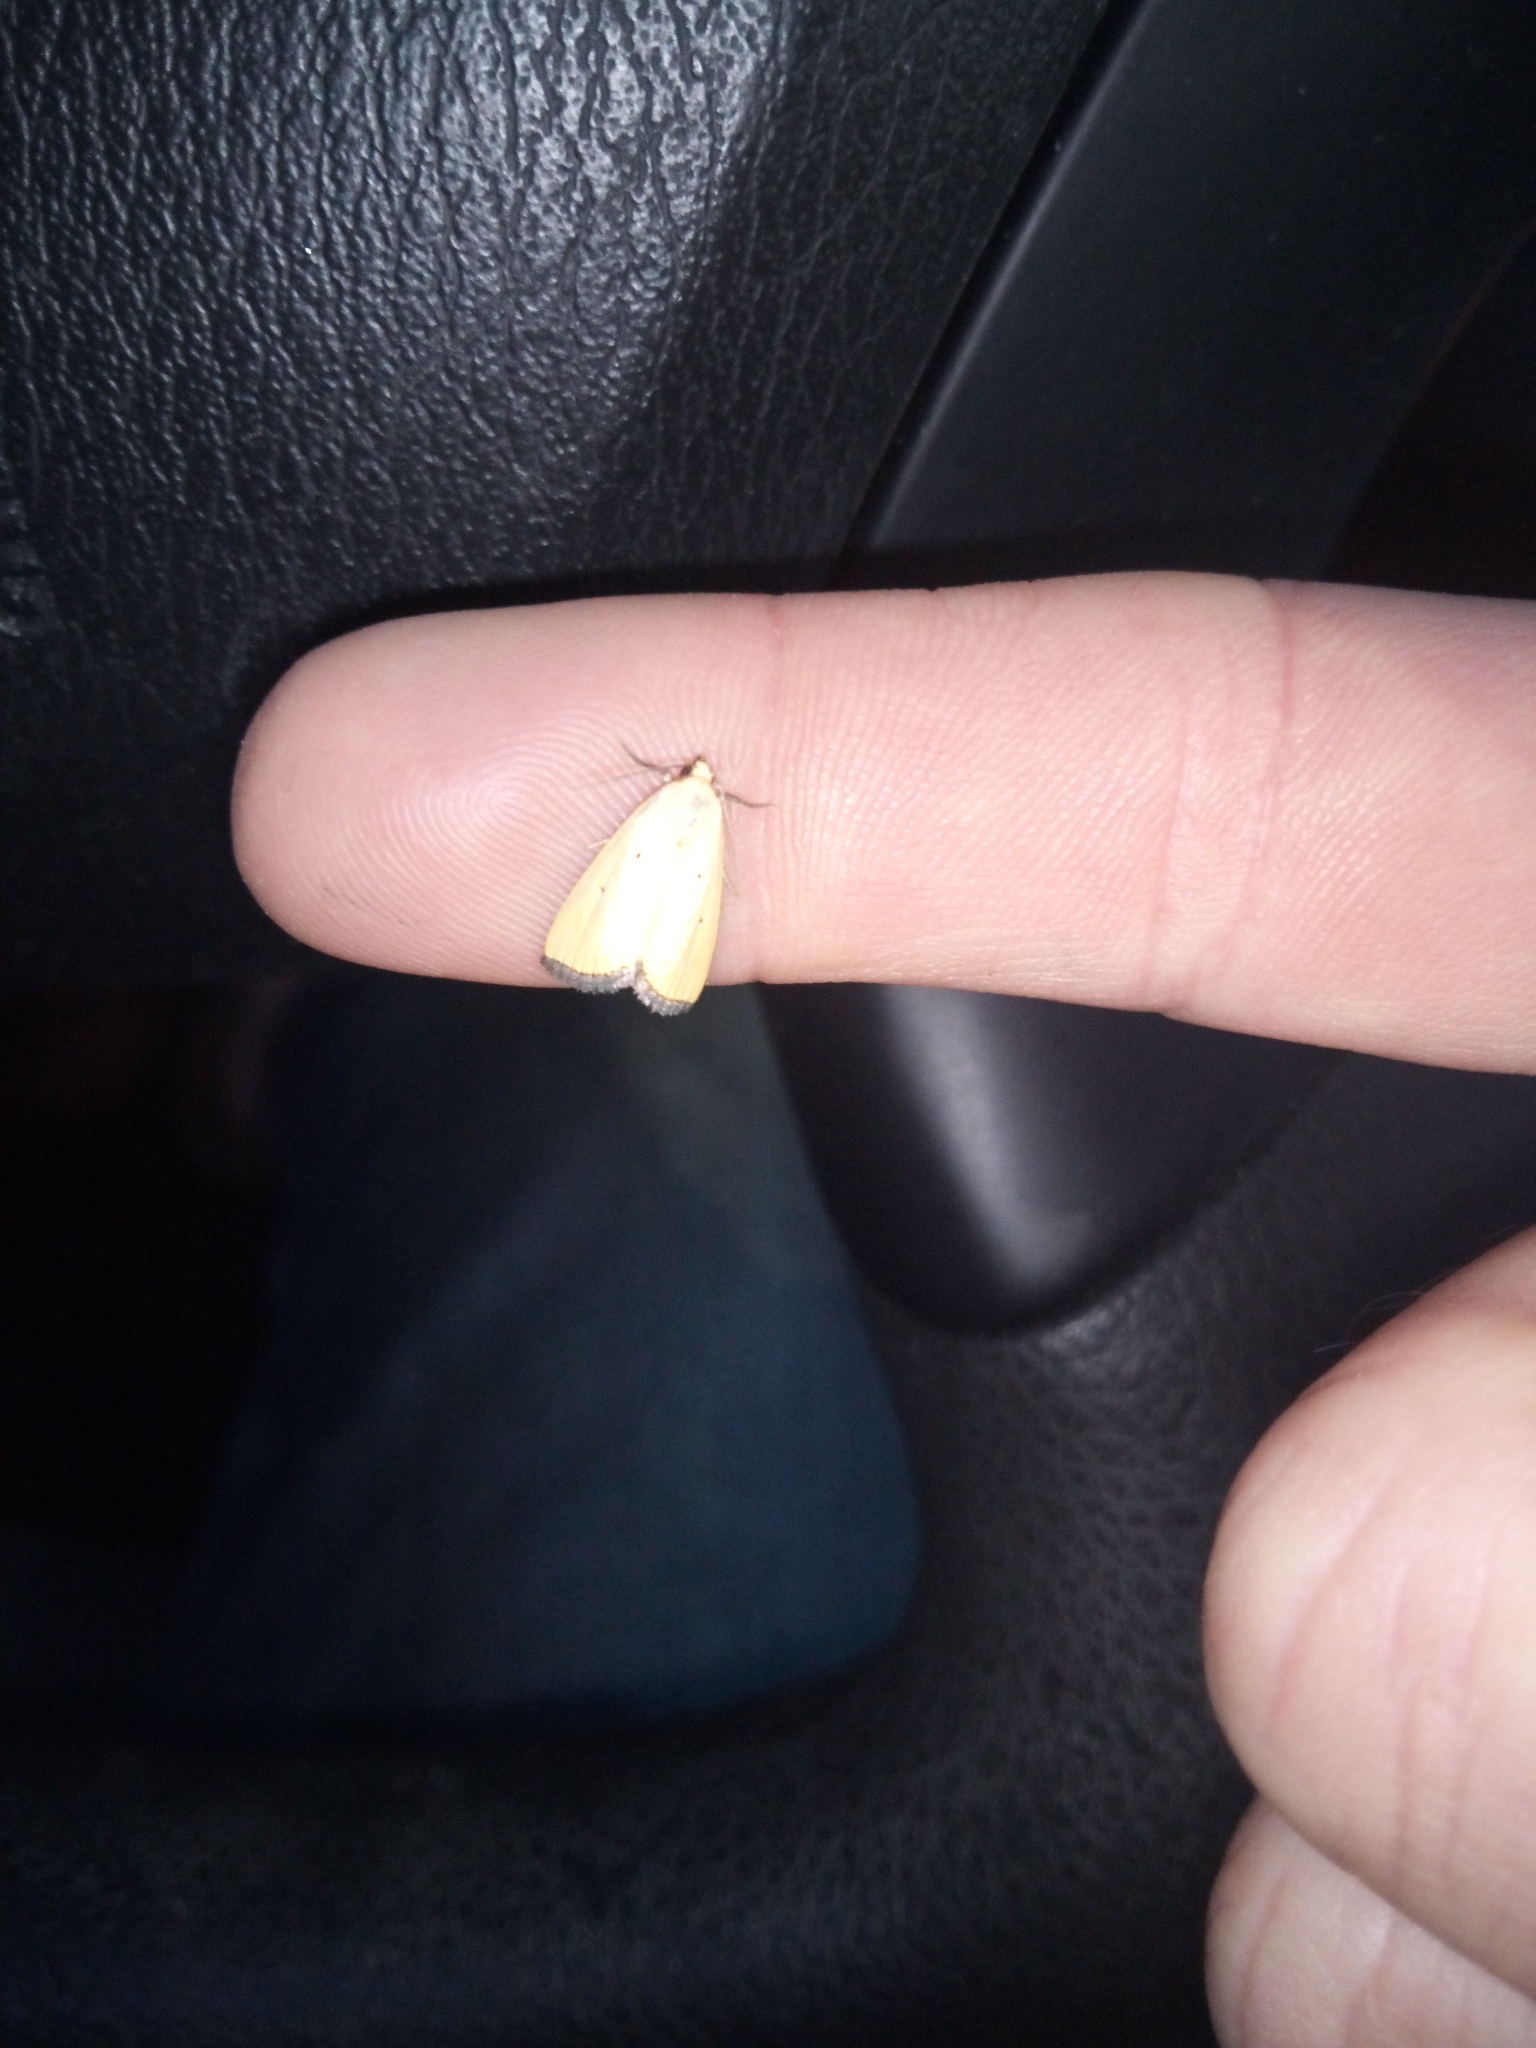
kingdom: Animalia
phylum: Arthropoda
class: Insecta
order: Lepidoptera
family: Noctuidae
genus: Marimatha
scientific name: Marimatha nigrofimbria
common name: Black-bordered lemon moth
